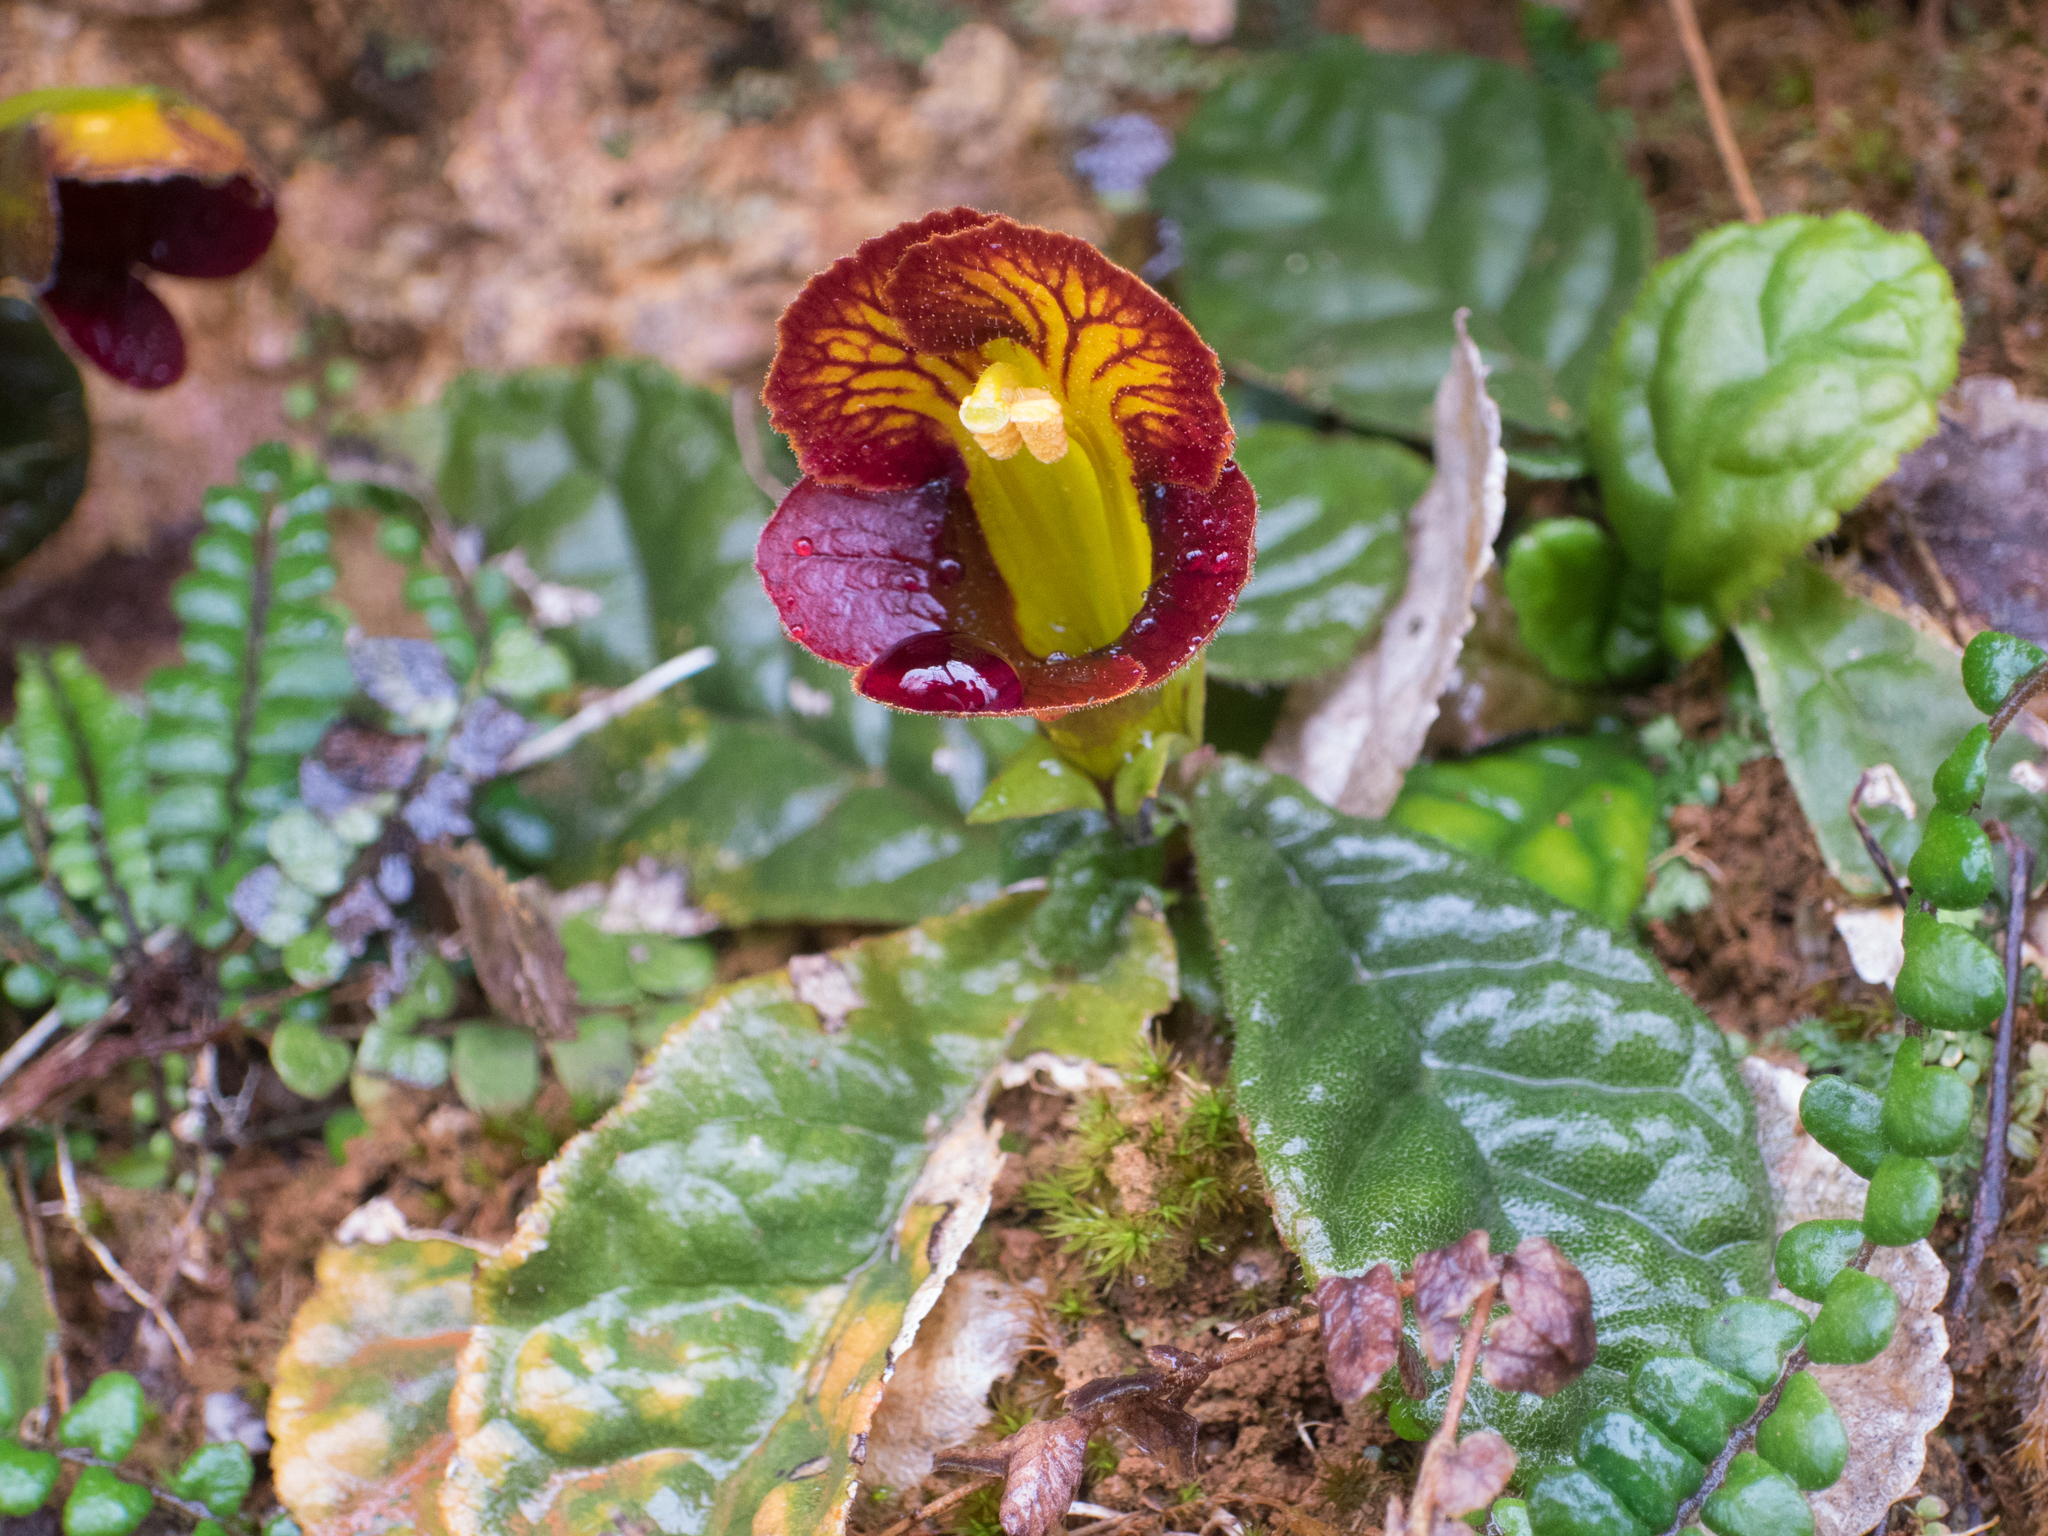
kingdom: Plantae
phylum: Tracheophyta
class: Magnoliopsida
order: Lamiales
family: Gesneriaceae
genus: Gesneria
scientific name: Gesneria depressa
